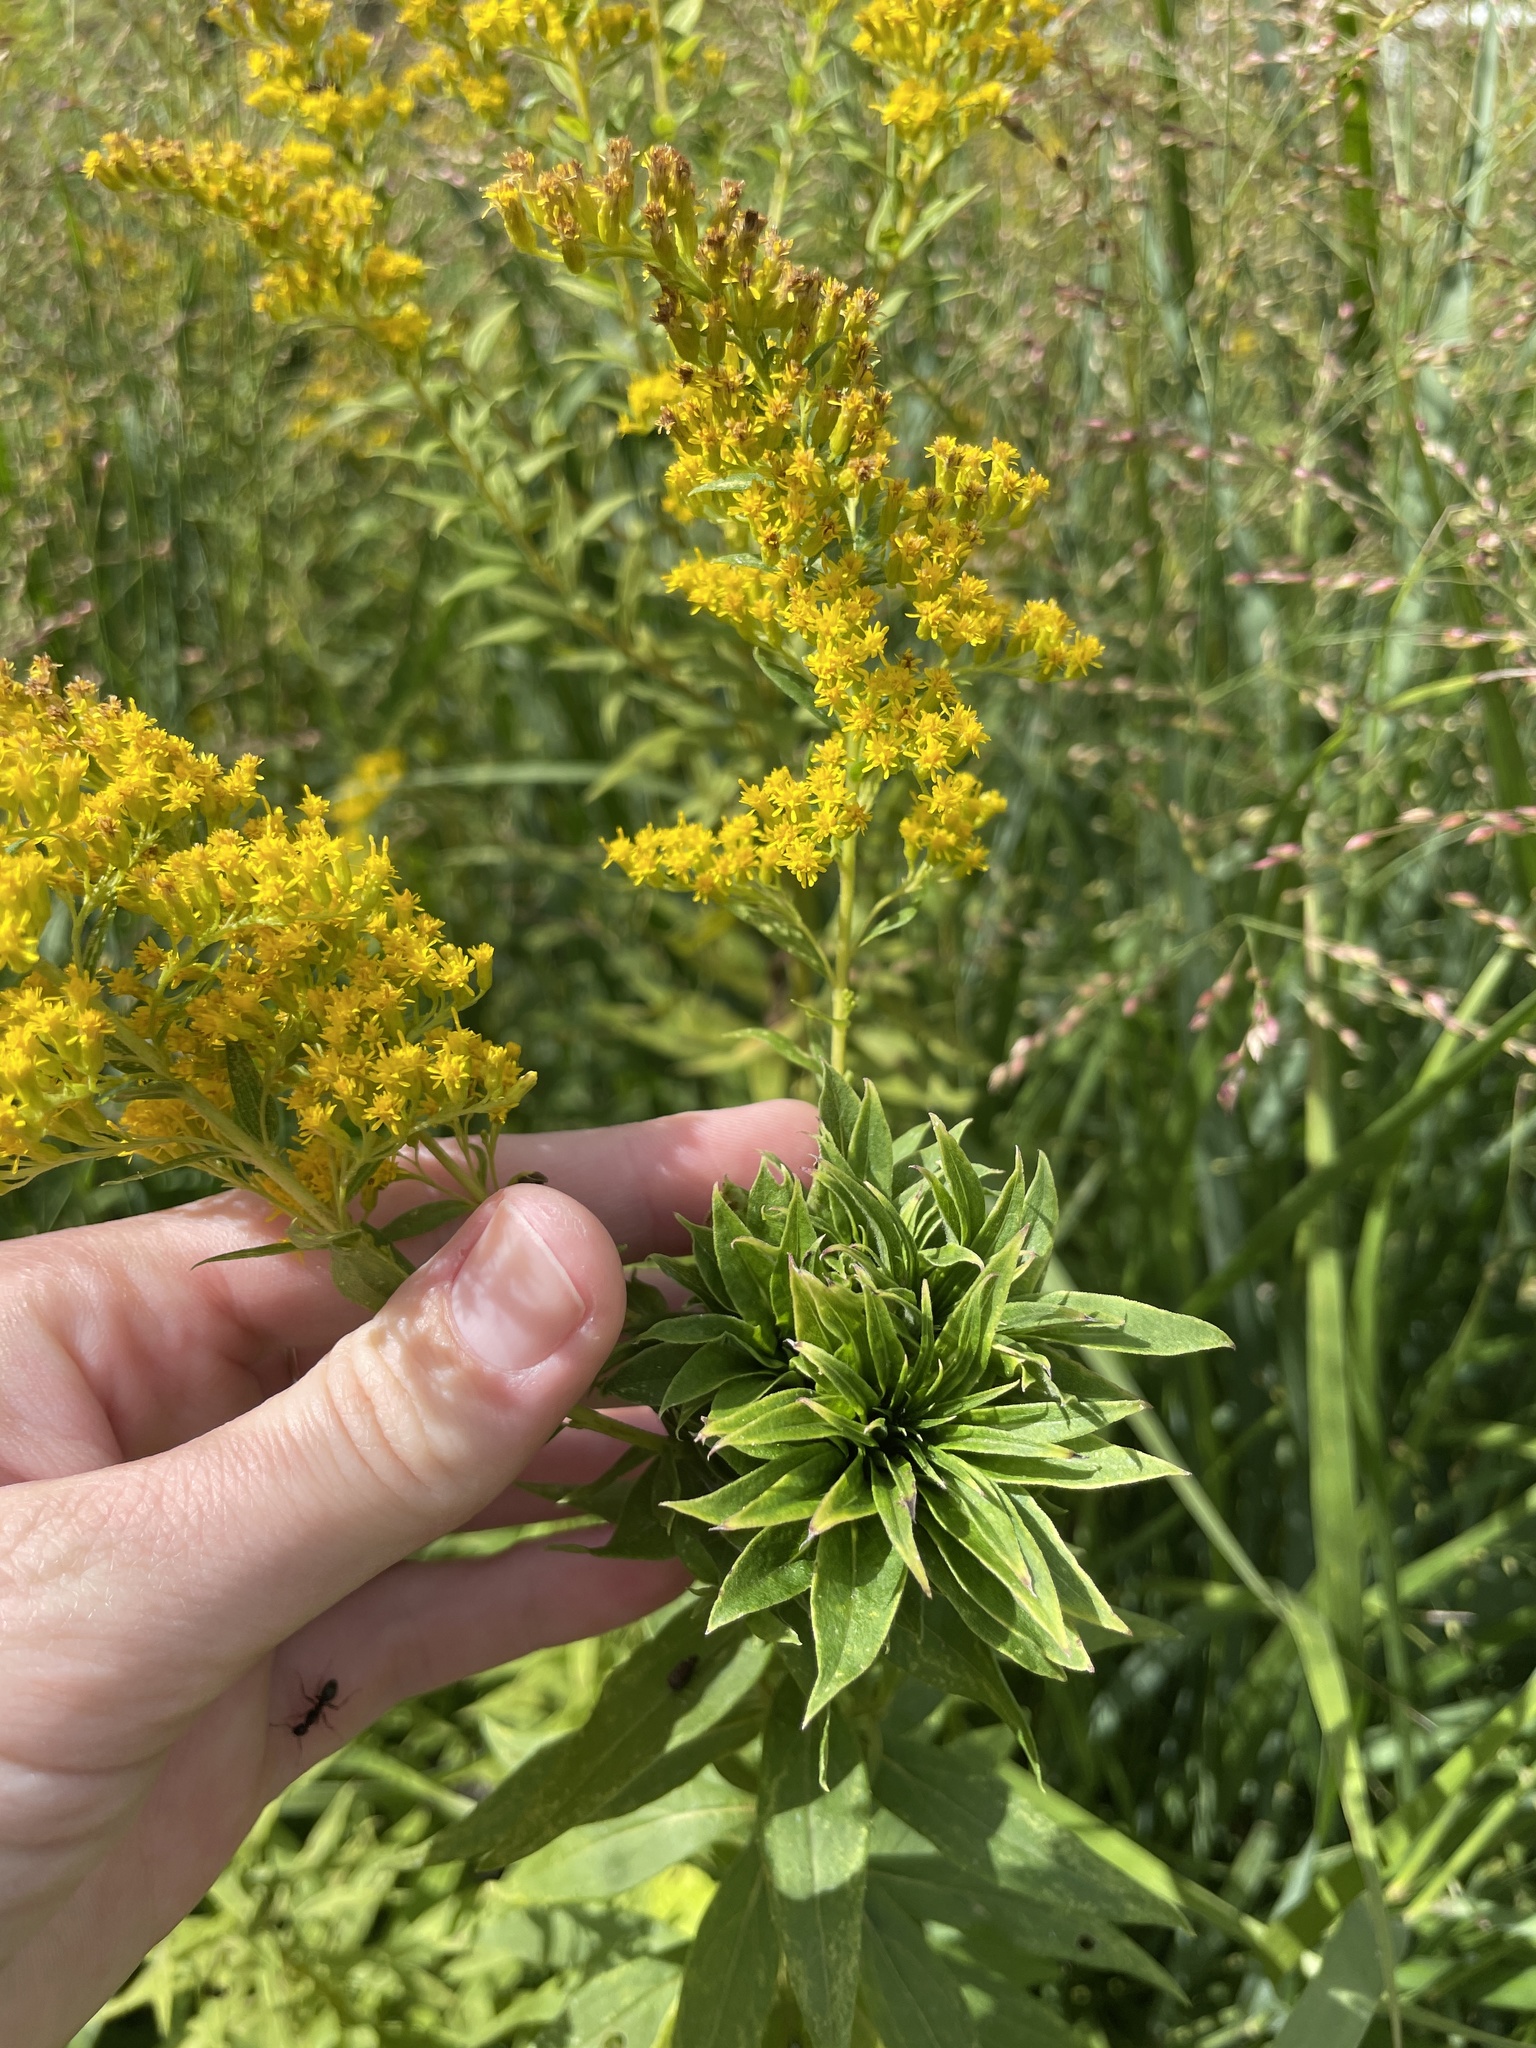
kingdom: Animalia
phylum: Arthropoda
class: Insecta
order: Diptera
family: Cecidomyiidae
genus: Rhopalomyia
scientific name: Rhopalomyia solidaginis
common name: Goldenrod bunch gall midge
